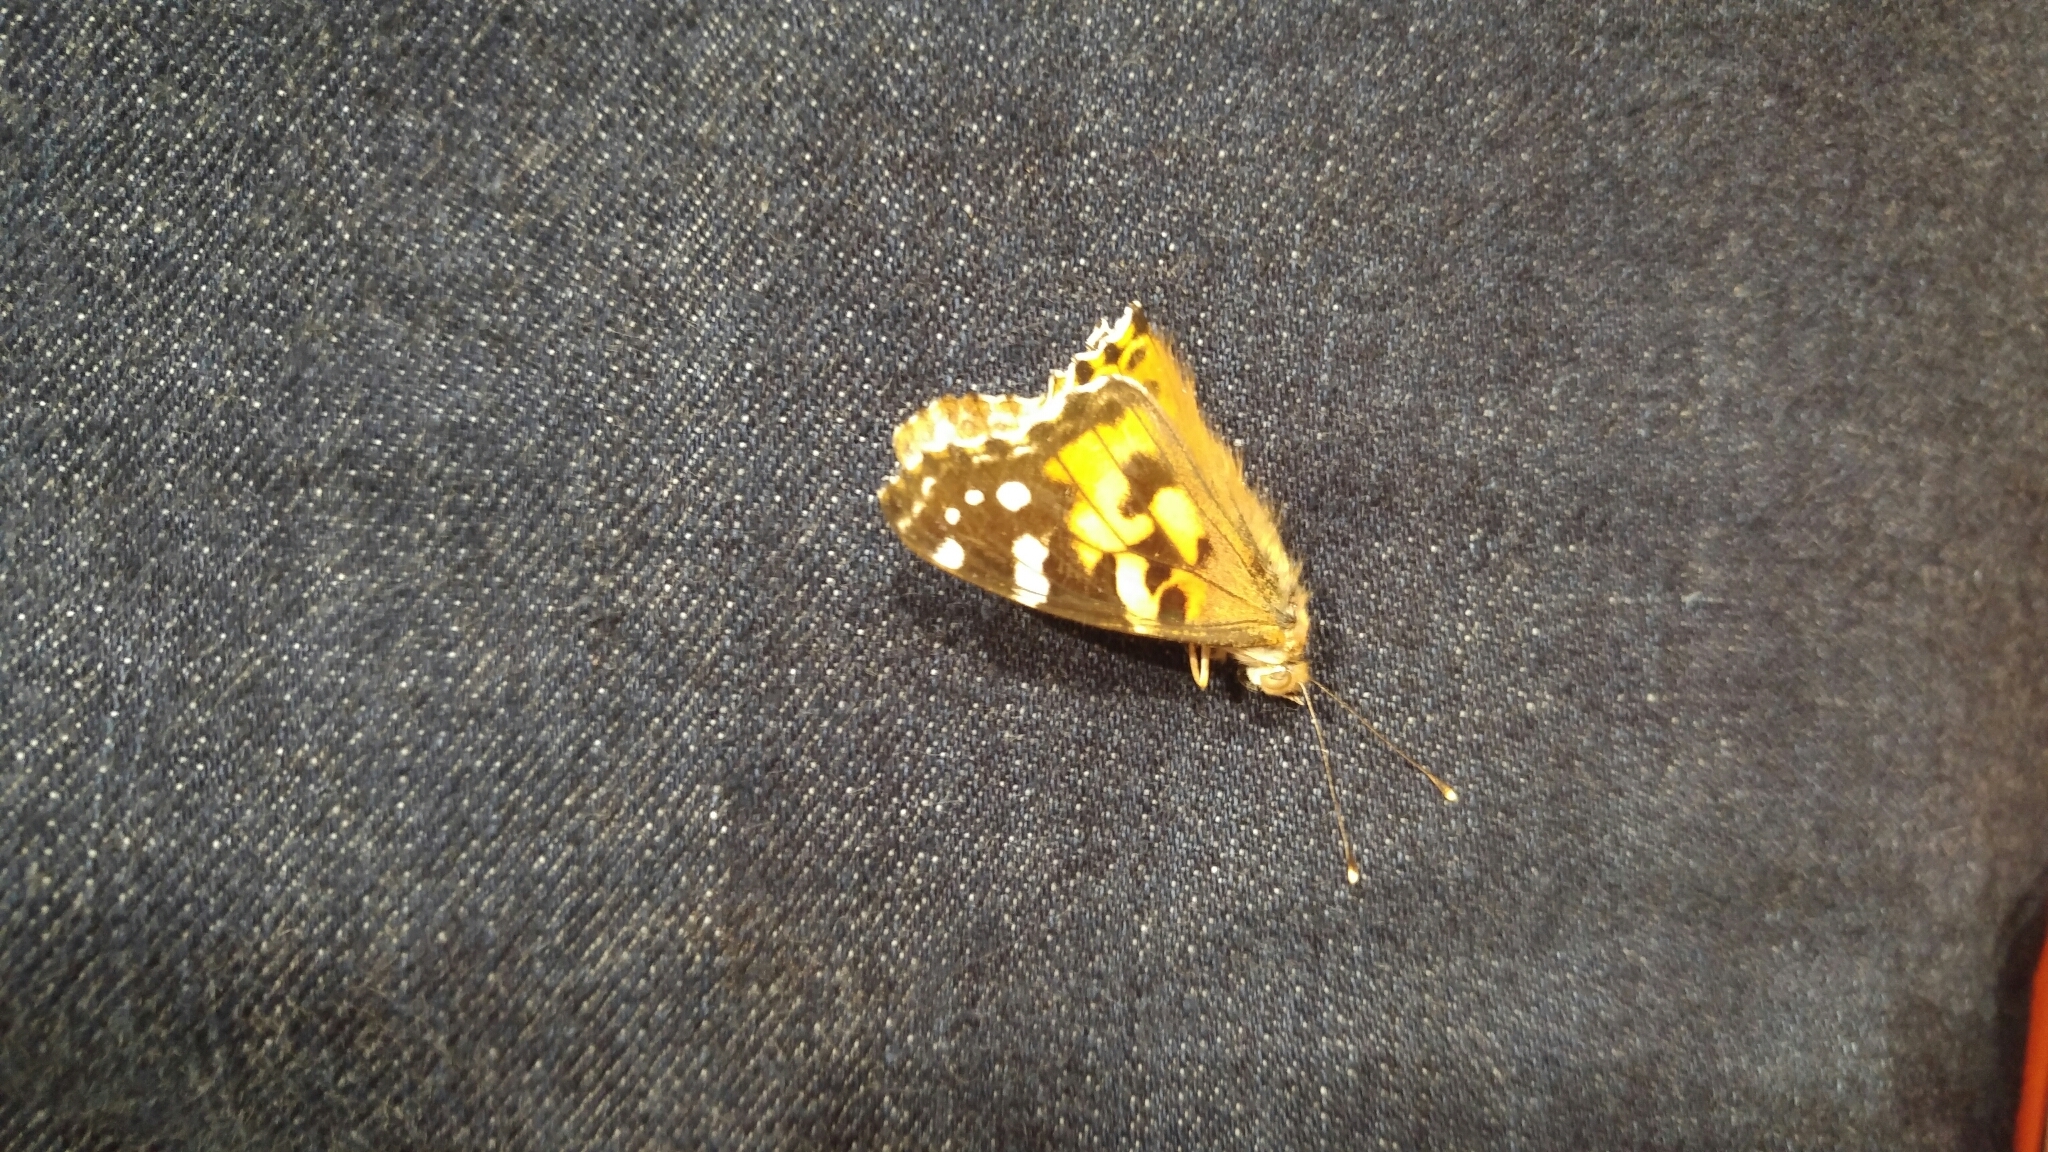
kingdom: Animalia
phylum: Arthropoda
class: Insecta
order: Lepidoptera
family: Nymphalidae
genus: Vanessa
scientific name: Vanessa cardui
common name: Painted lady
